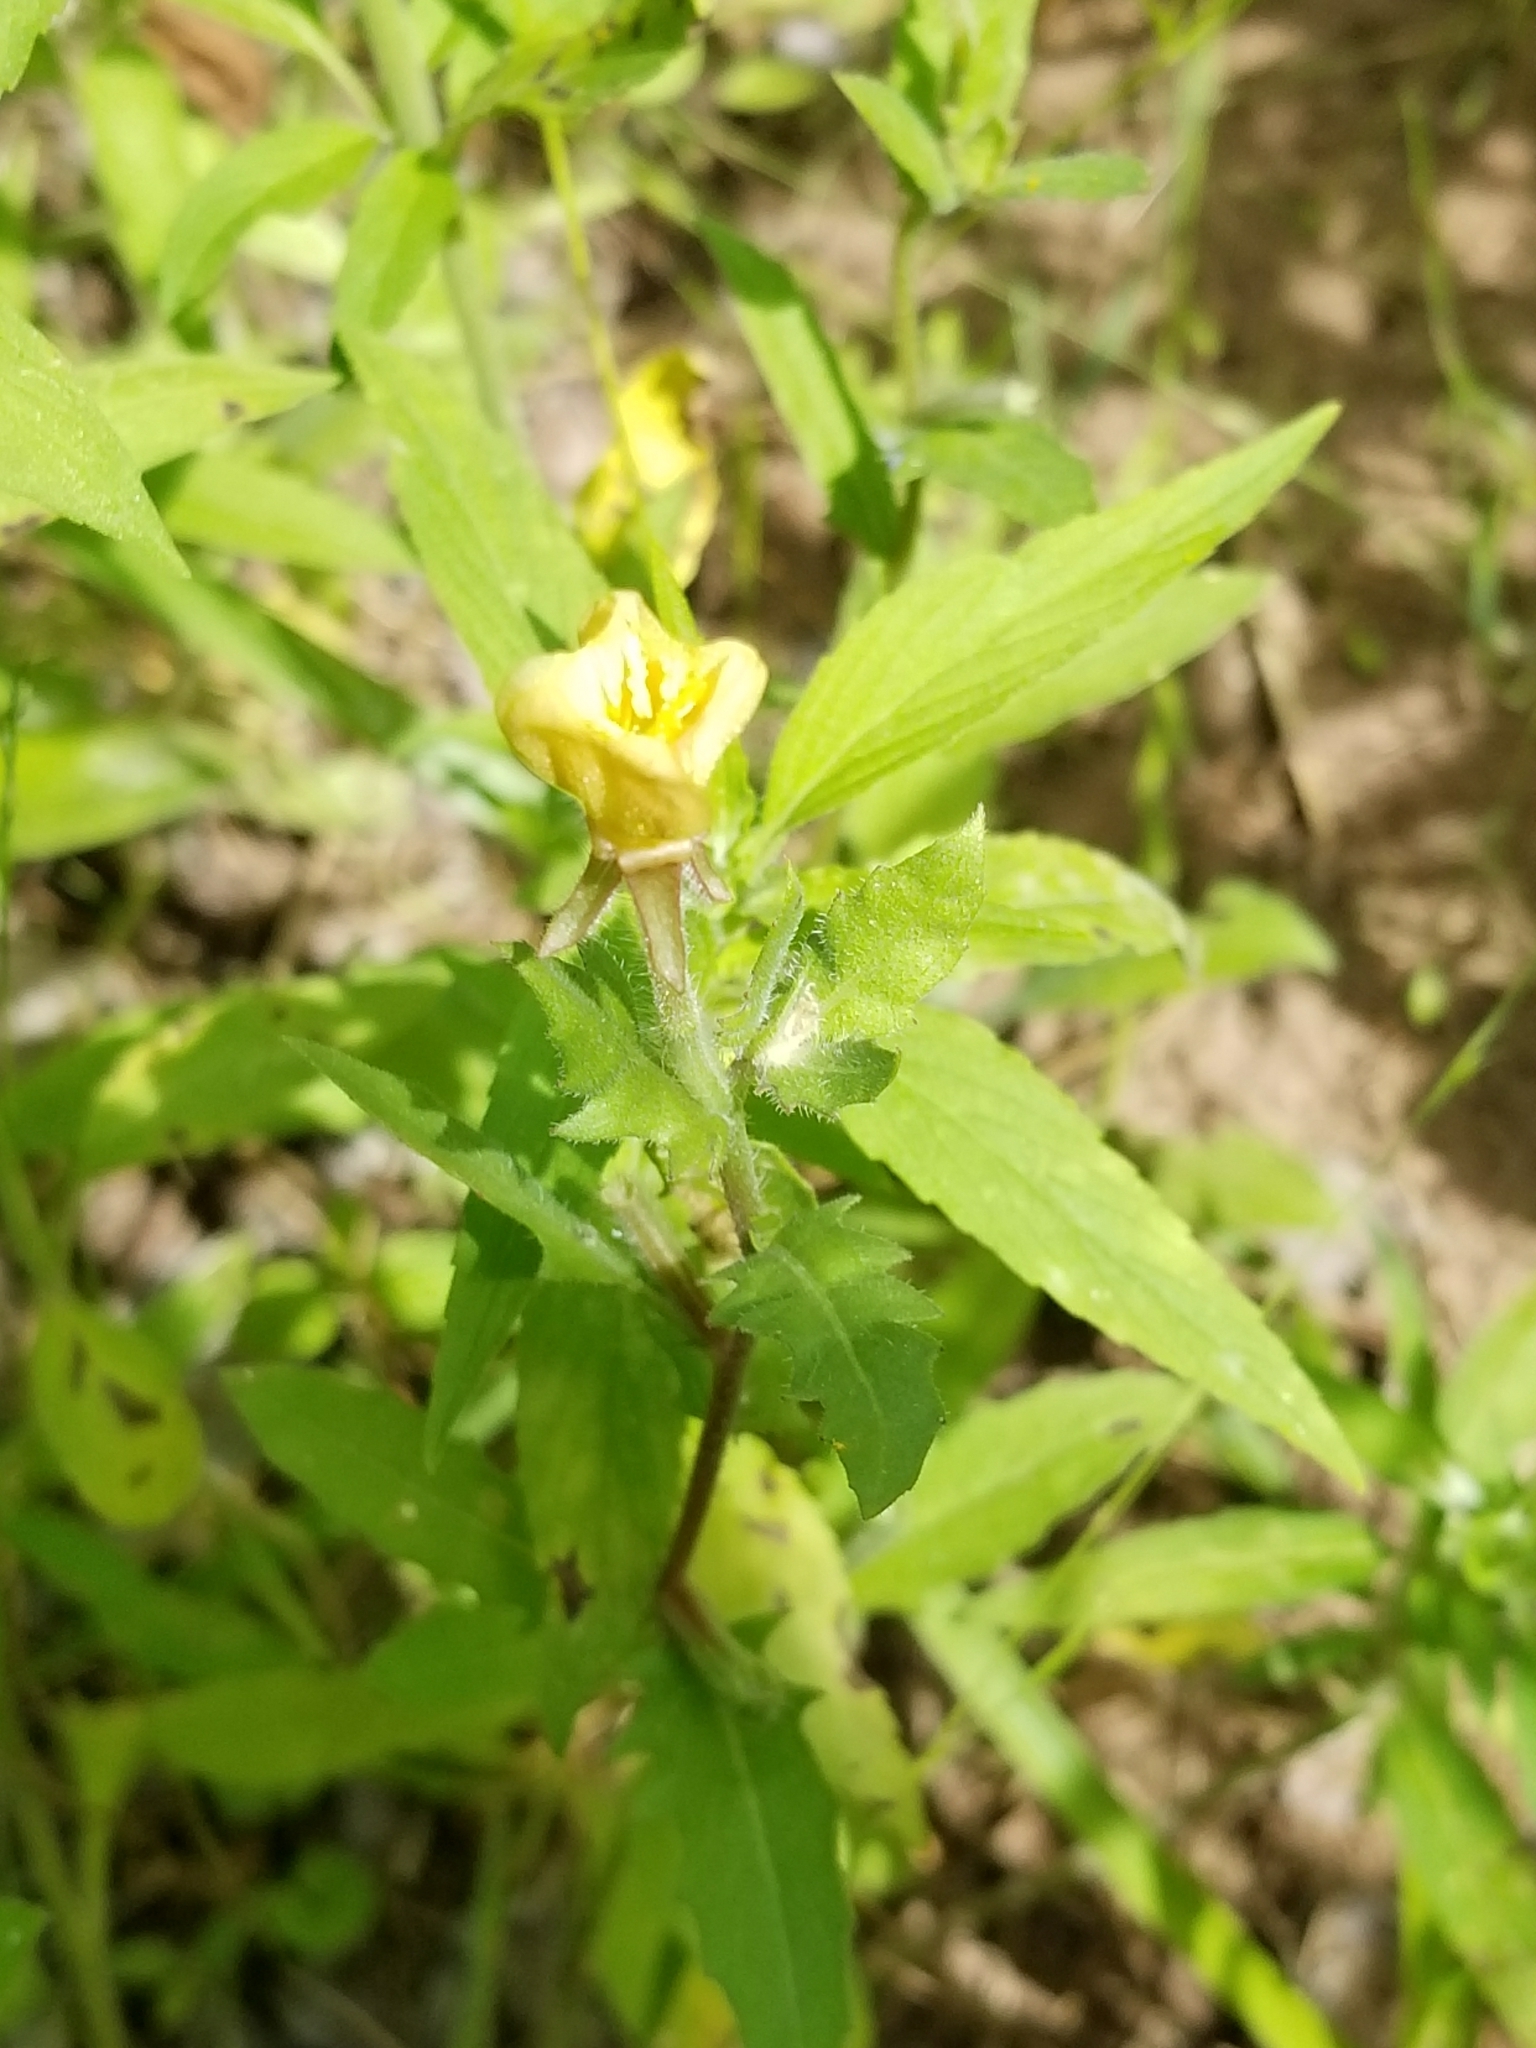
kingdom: Plantae
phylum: Tracheophyta
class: Magnoliopsida
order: Myrtales
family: Onagraceae
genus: Oenothera
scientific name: Oenothera laciniata
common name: Cut-leaved evening-primrose
